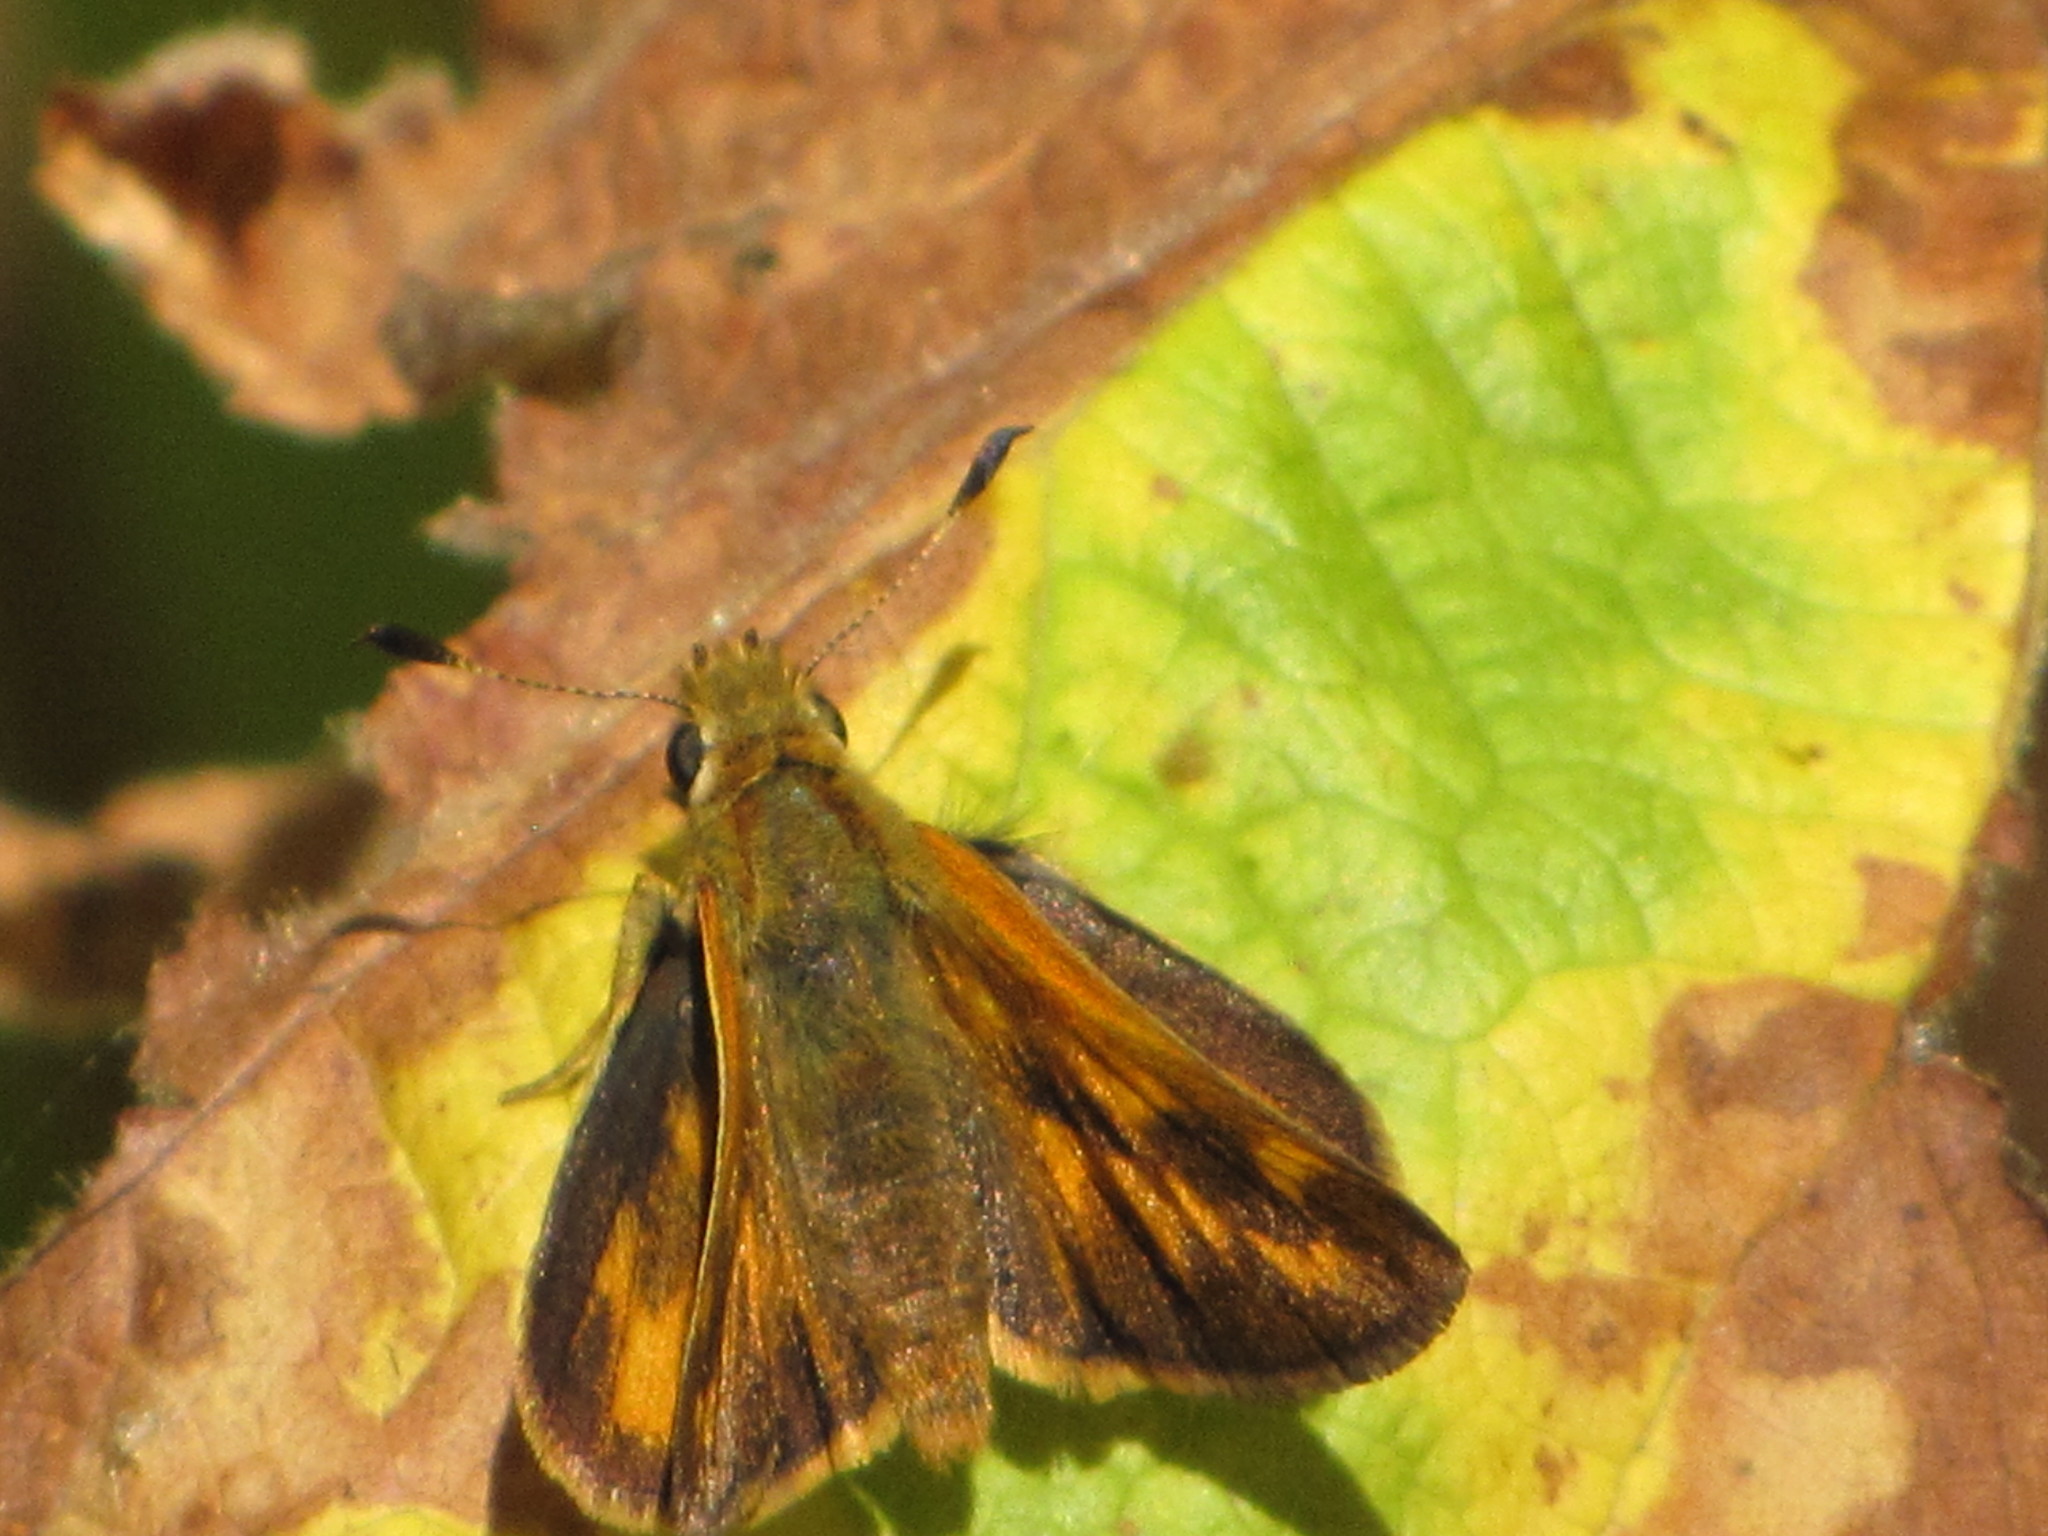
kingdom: Animalia
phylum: Arthropoda
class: Insecta
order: Lepidoptera
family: Hesperiidae
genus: Ochlodes
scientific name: Ochlodes sylvanoides
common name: Woodland skipper
